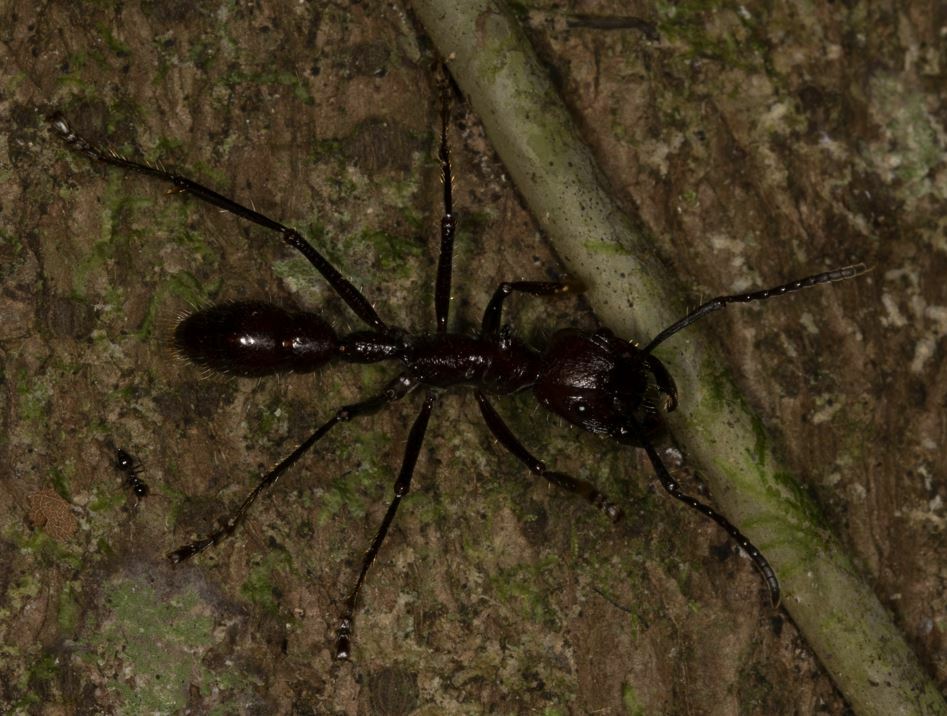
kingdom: Animalia
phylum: Arthropoda
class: Insecta
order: Hymenoptera
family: Formicidae
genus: Paraponera
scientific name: Paraponera clavata
